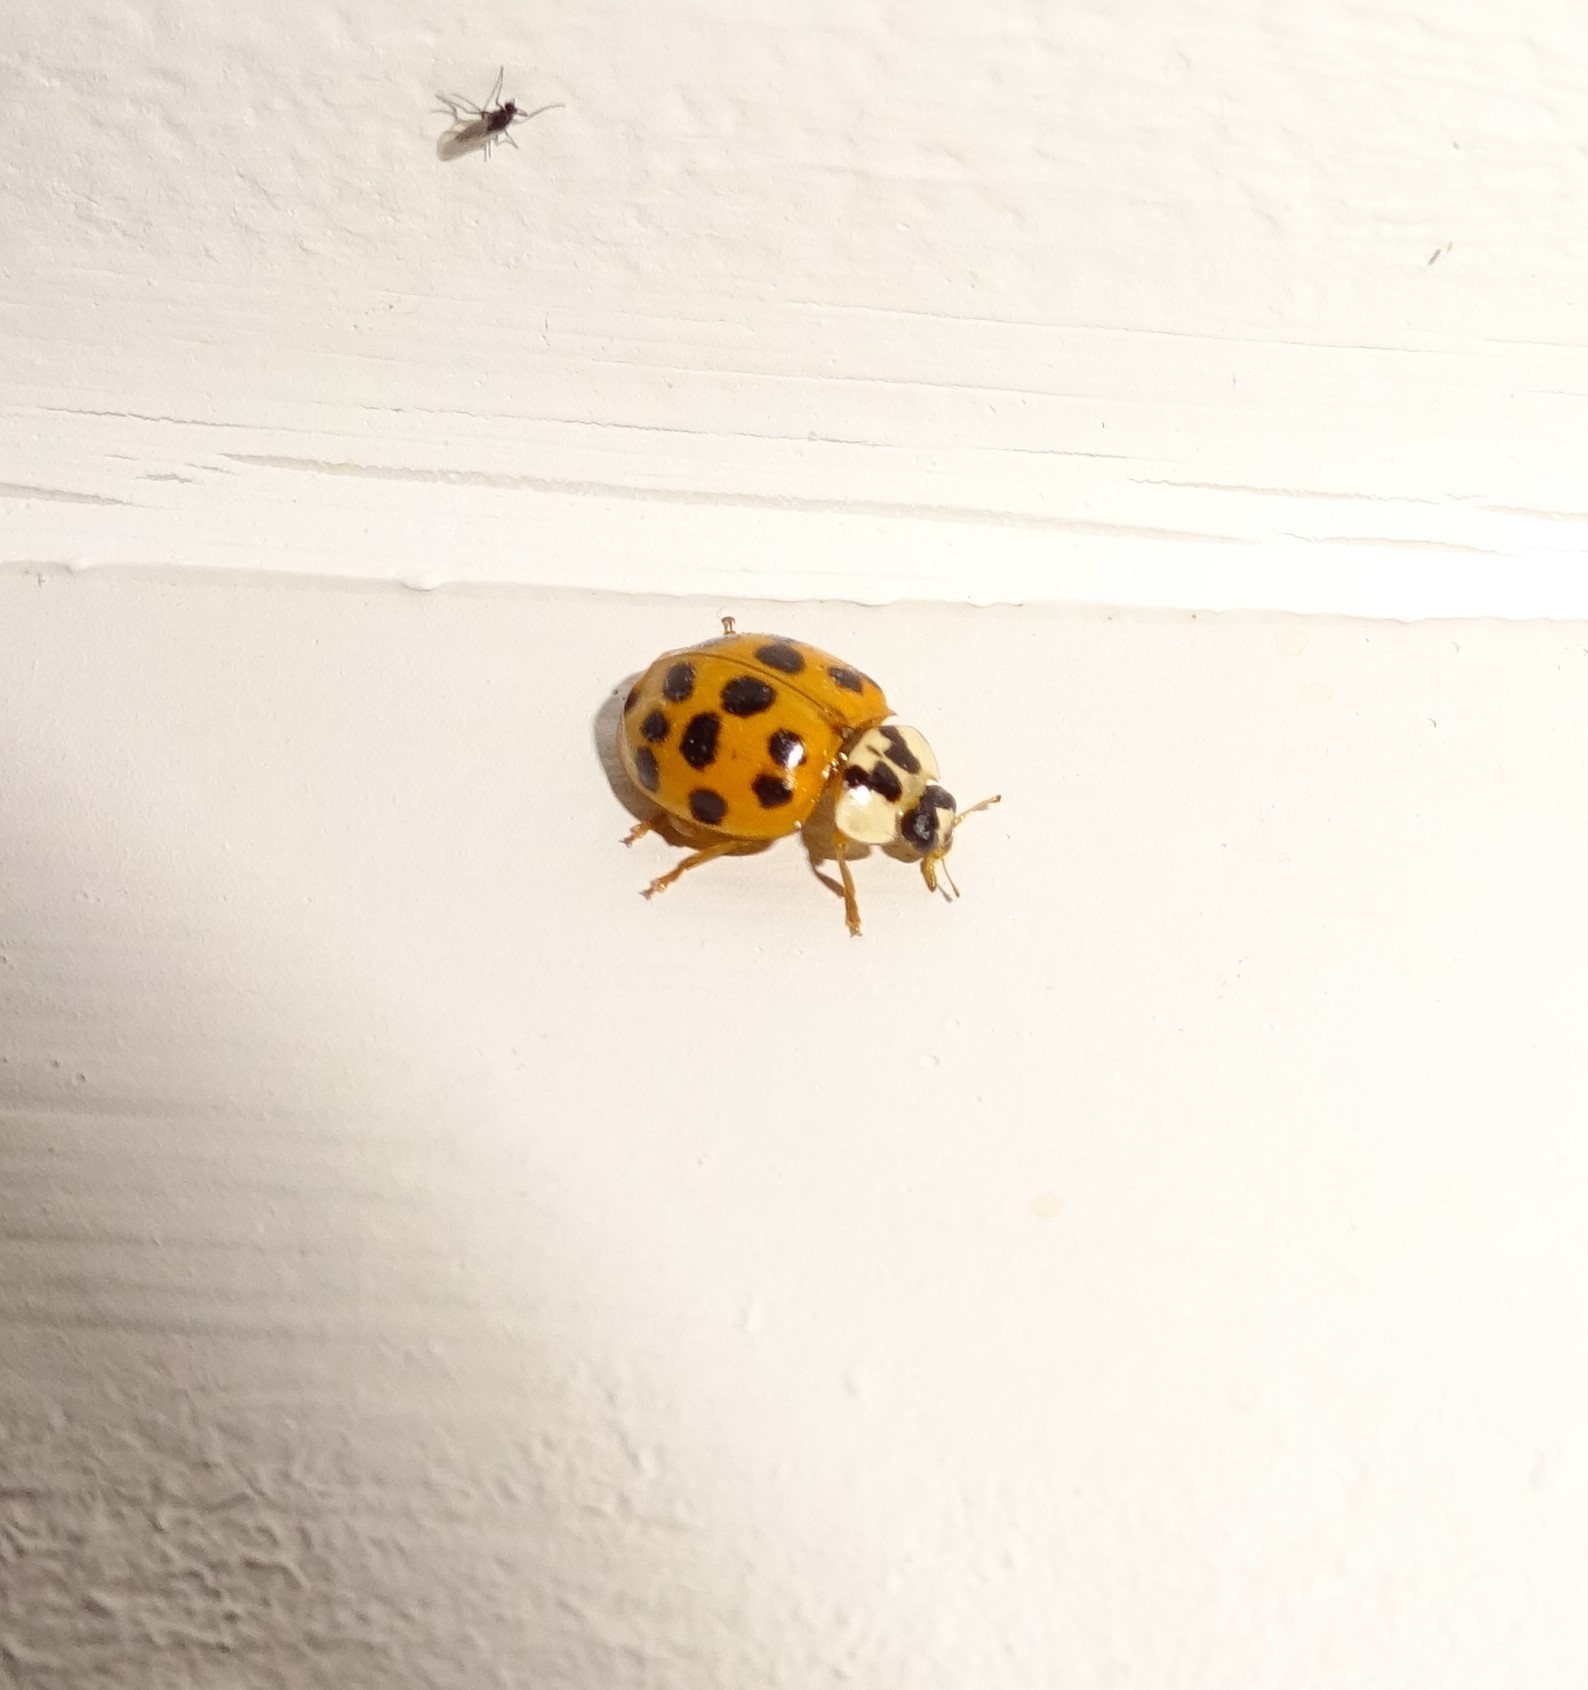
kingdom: Animalia
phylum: Arthropoda
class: Insecta
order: Coleoptera
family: Coccinellidae
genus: Harmonia
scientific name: Harmonia axyridis
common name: Harlequin ladybird
